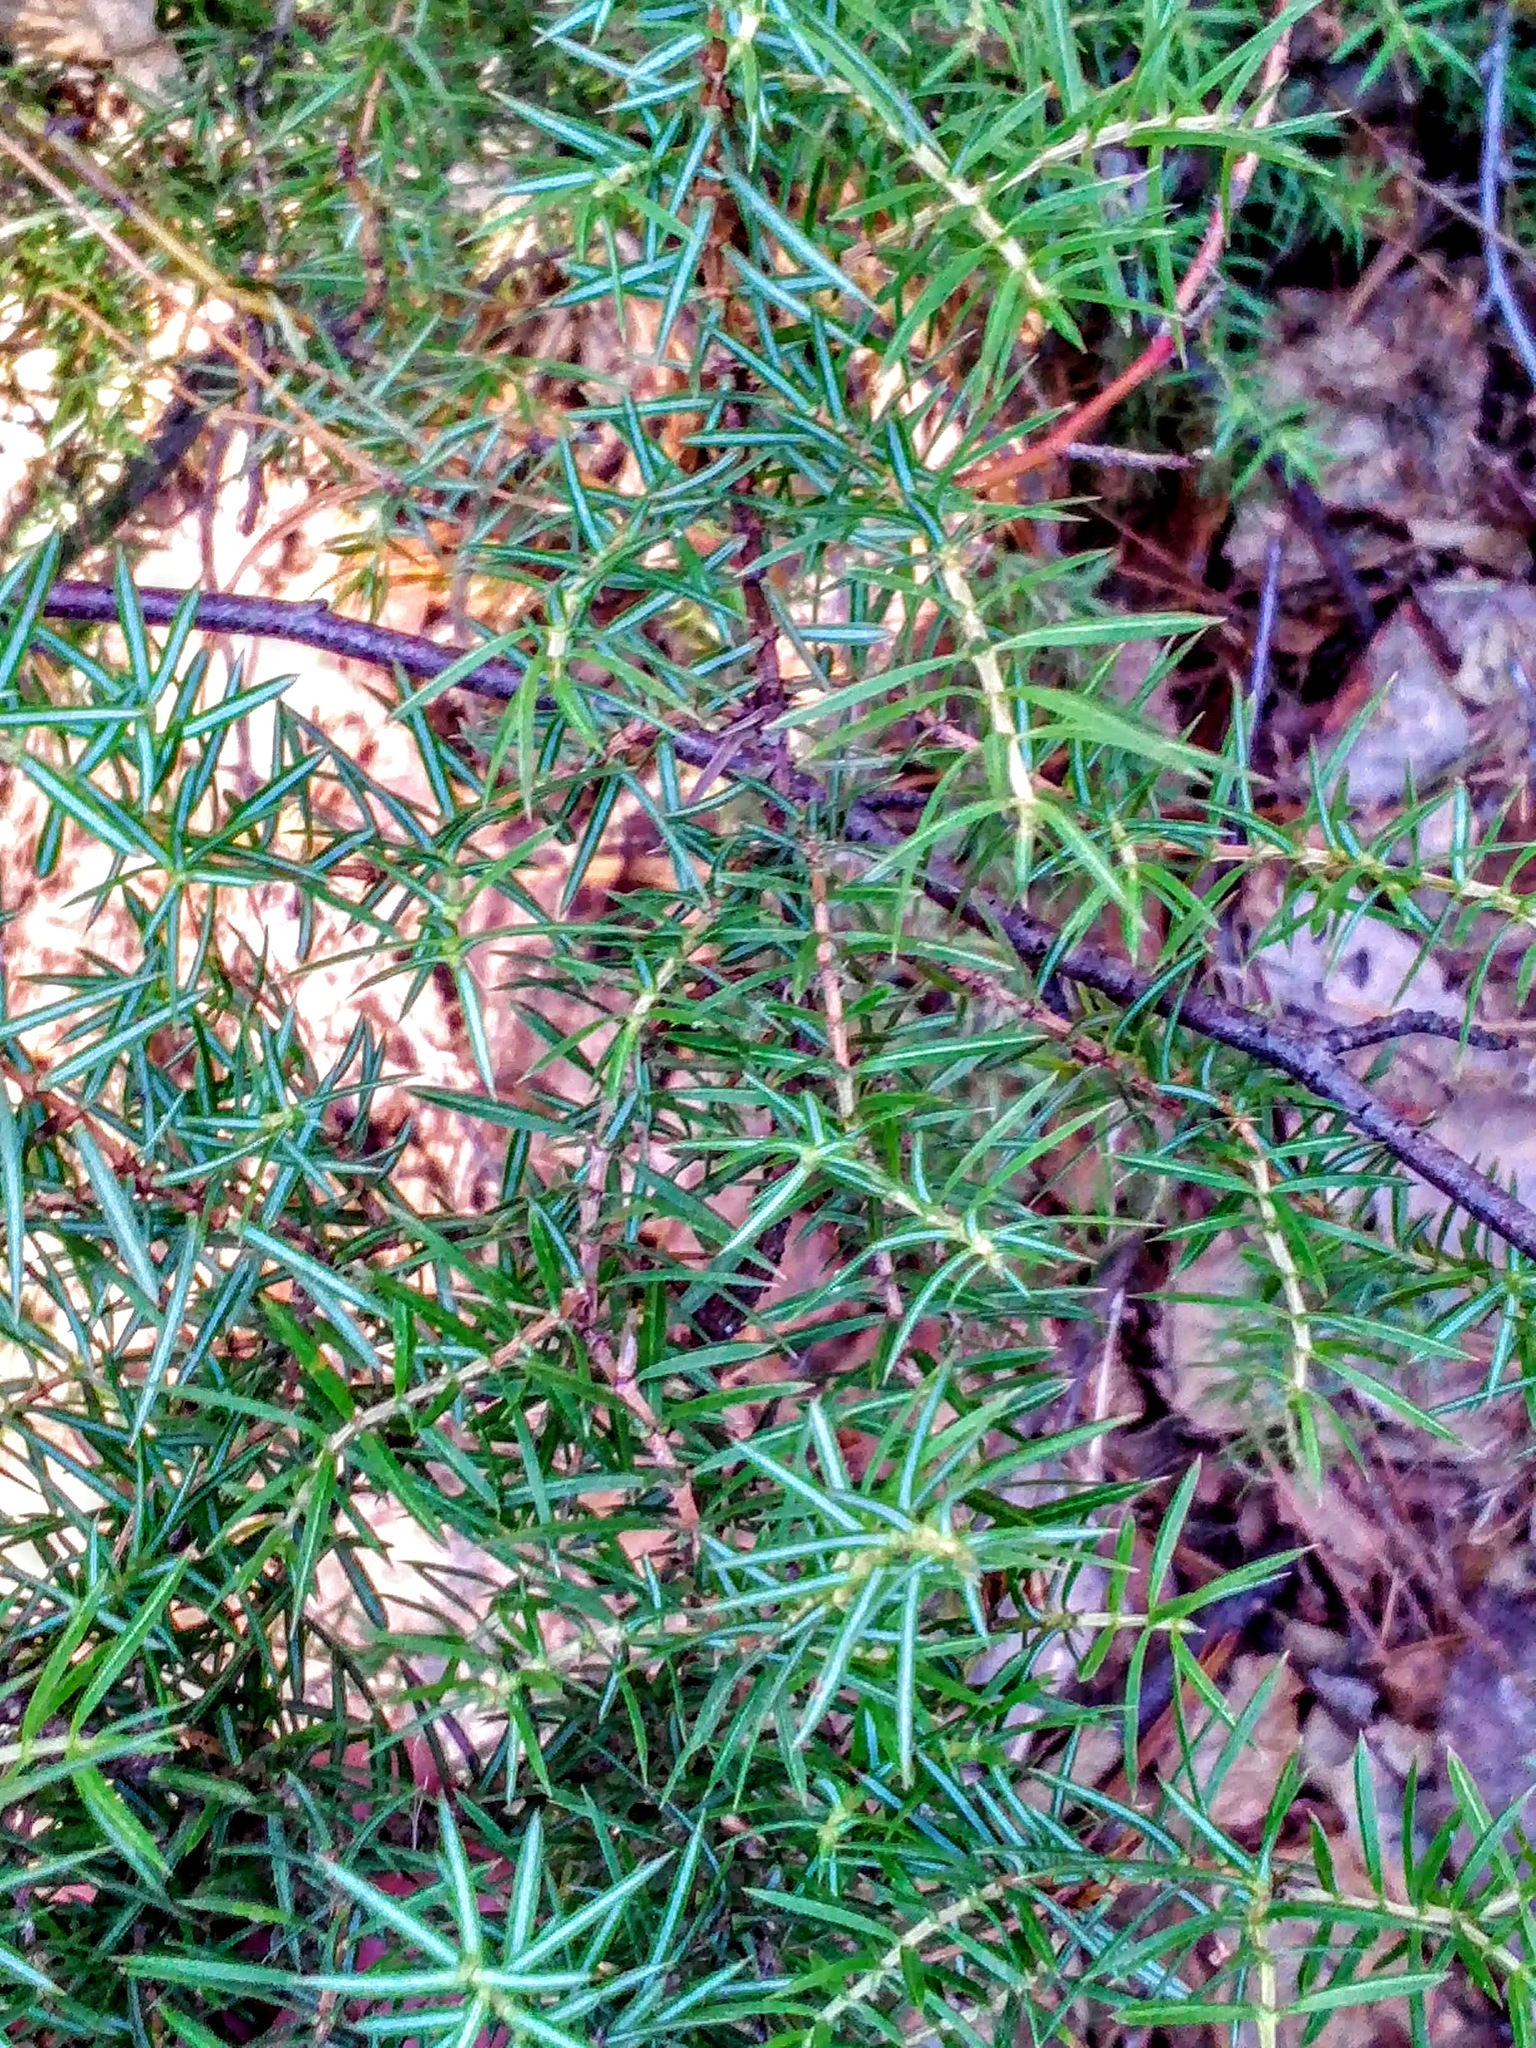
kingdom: Plantae
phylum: Tracheophyta
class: Pinopsida
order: Pinales
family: Cupressaceae
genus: Juniperus
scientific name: Juniperus communis
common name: Common juniper
